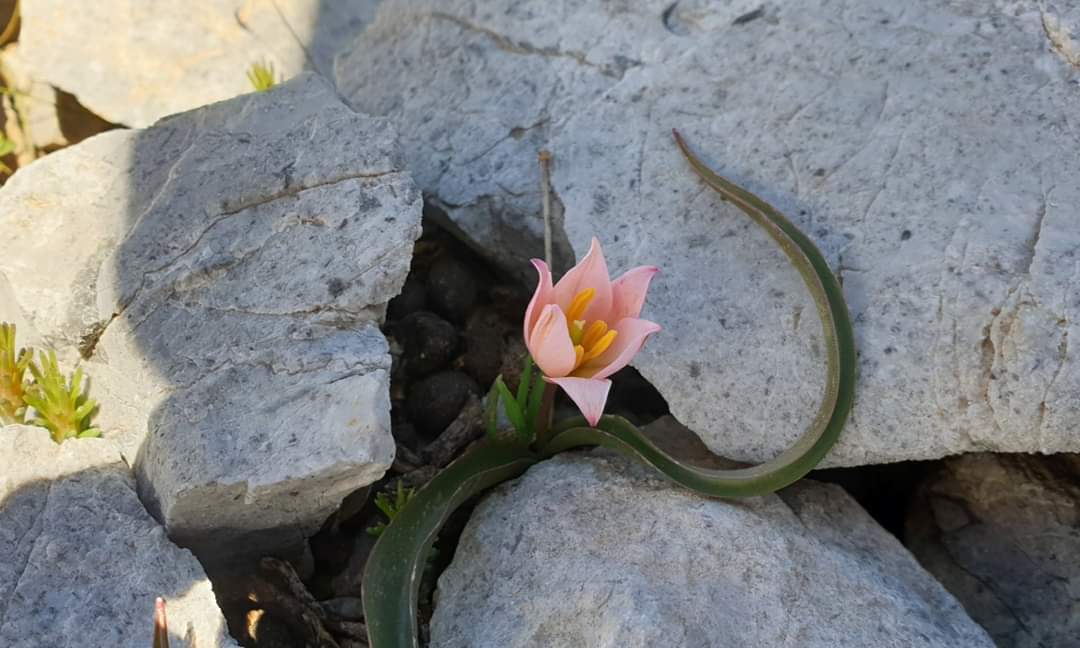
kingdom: Plantae
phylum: Tracheophyta
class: Liliopsida
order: Liliales
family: Liliaceae
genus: Tulipa
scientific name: Tulipa cretica
